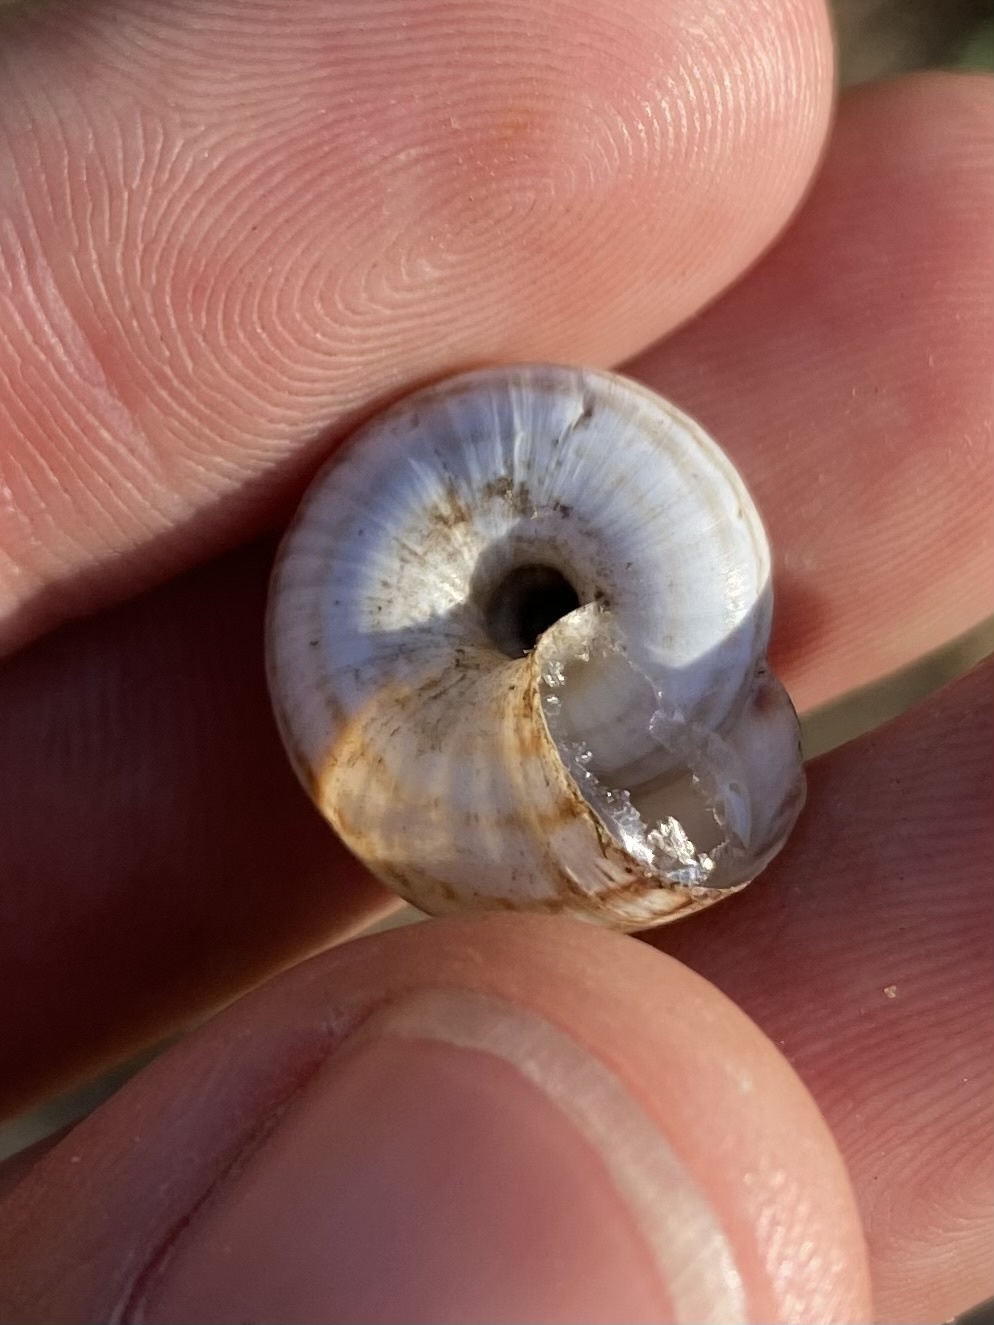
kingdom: Animalia
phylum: Mollusca
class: Gastropoda
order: Stylommatophora
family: Geomitridae
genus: Xeropicta
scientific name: Xeropicta derbentina
